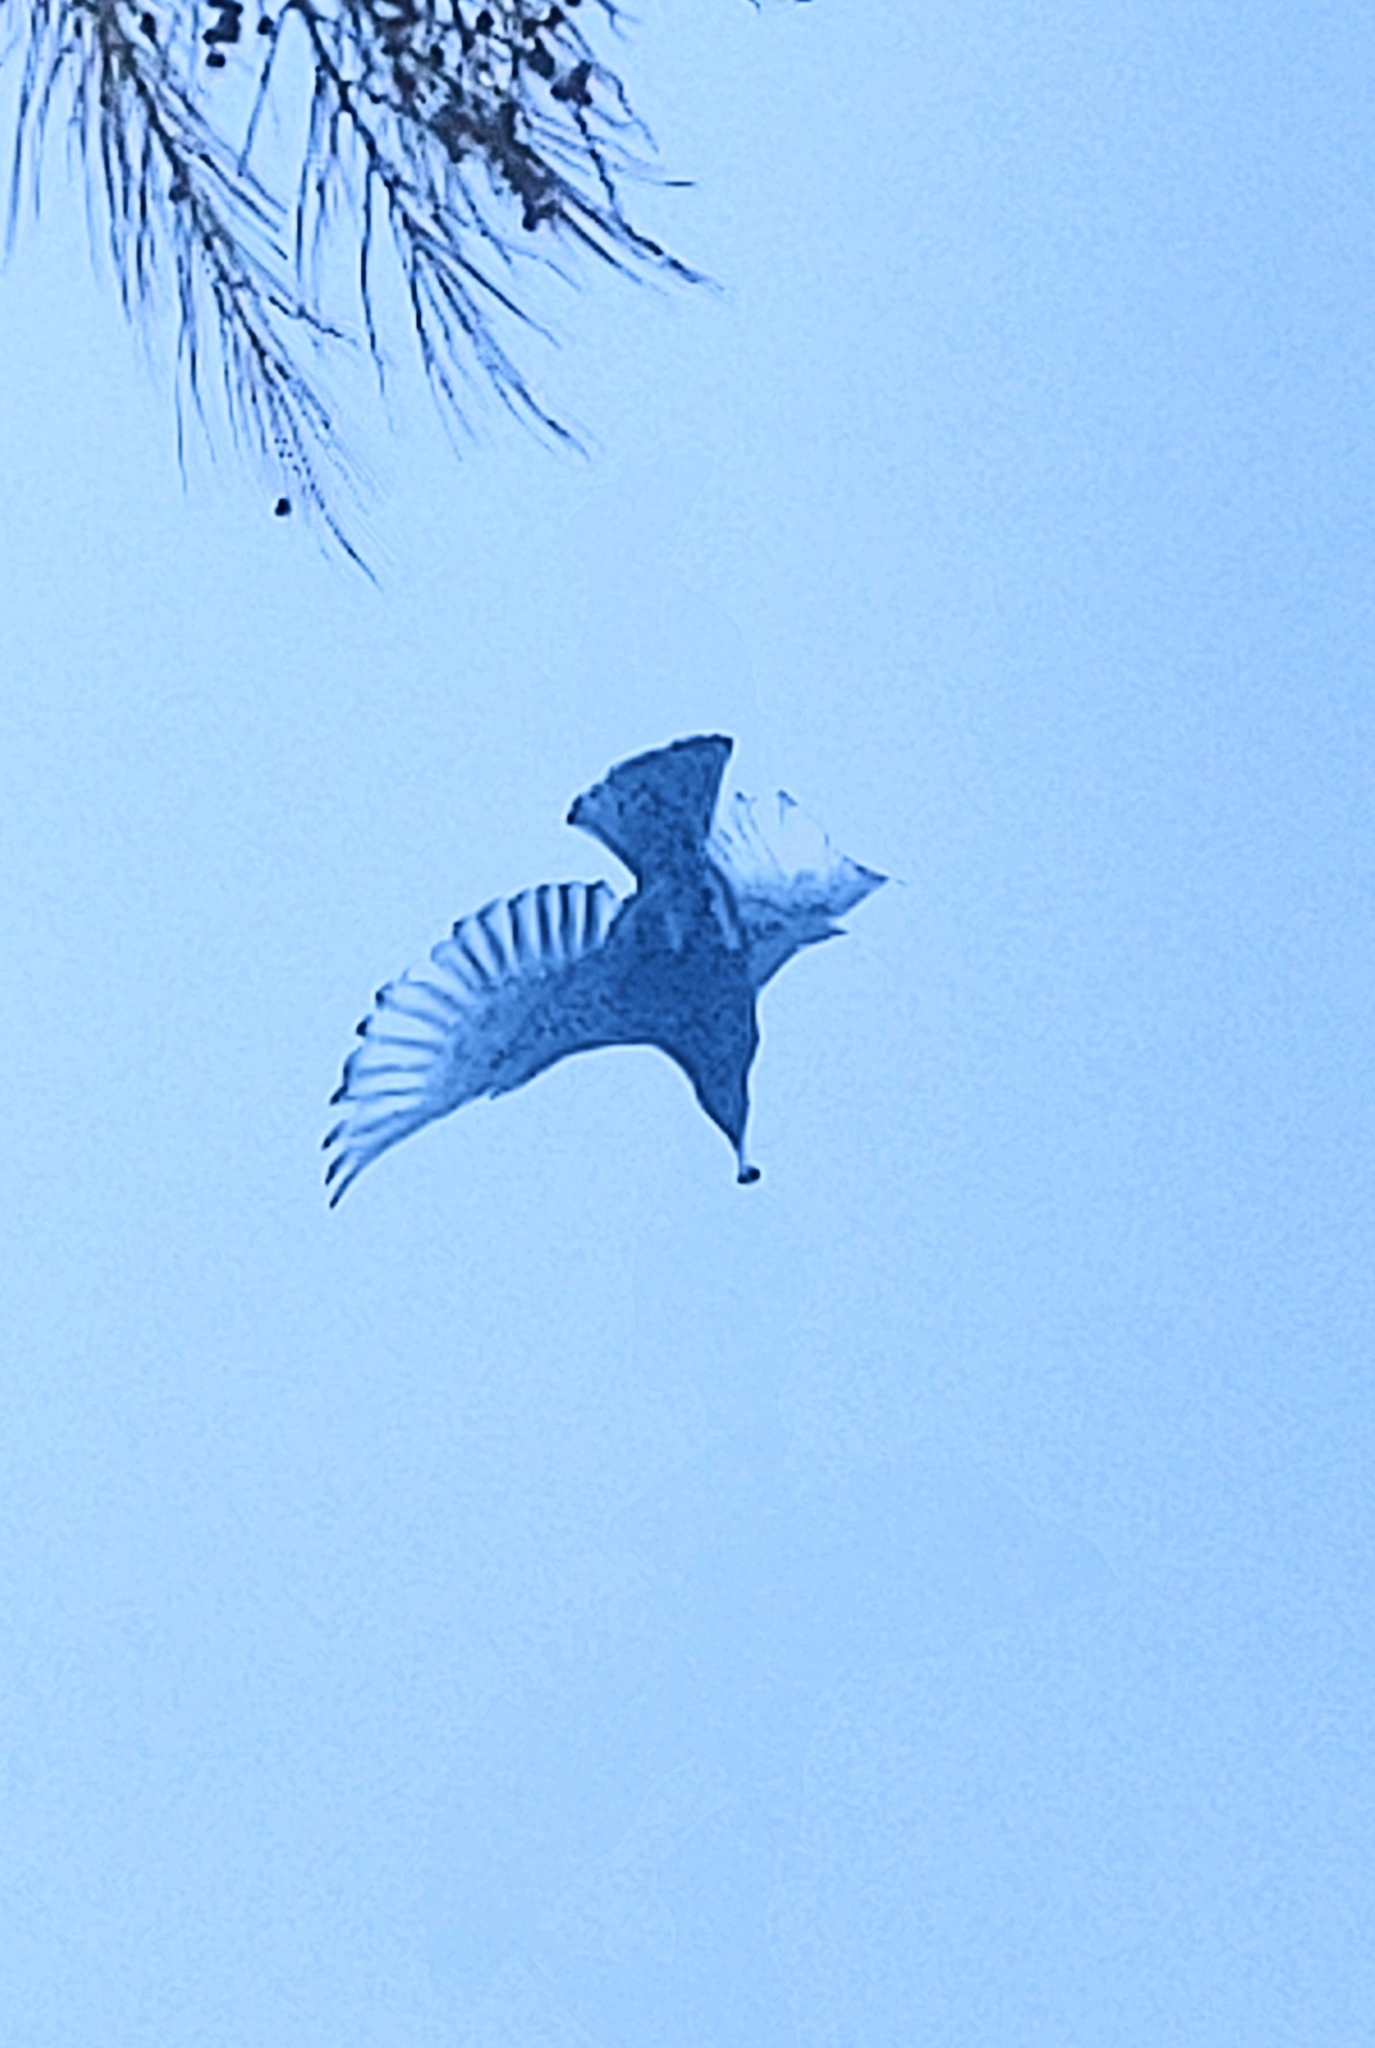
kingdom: Animalia
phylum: Chordata
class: Aves
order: Passeriformes
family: Sturnidae
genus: Sturnus
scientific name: Sturnus vulgaris
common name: Common starling
